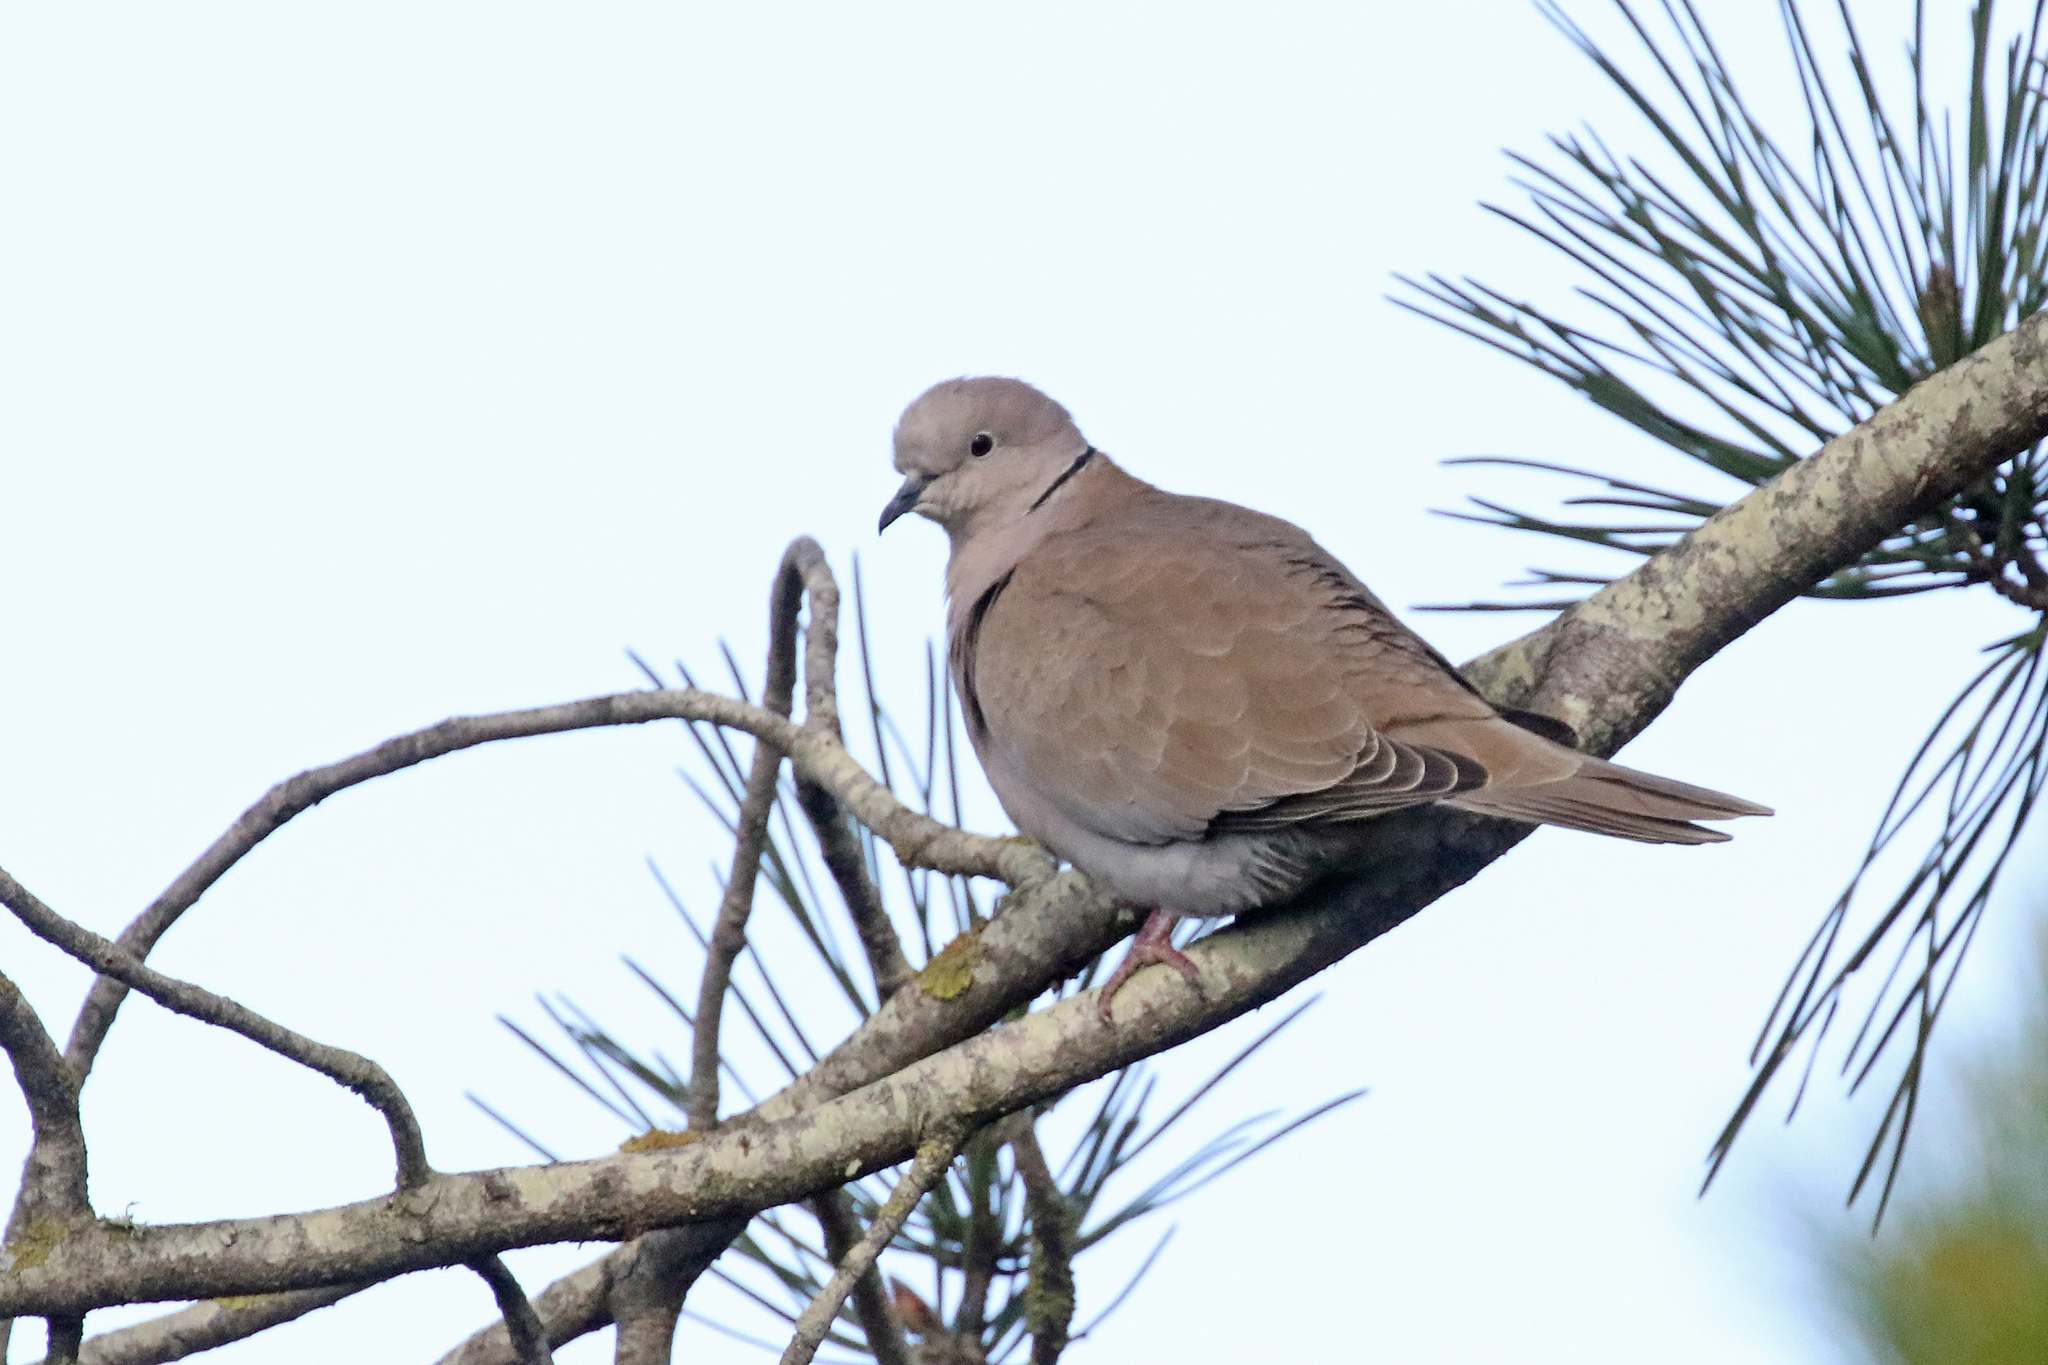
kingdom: Animalia
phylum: Chordata
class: Aves
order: Columbiformes
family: Columbidae
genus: Streptopelia
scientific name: Streptopelia decaocto
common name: Eurasian collared dove
